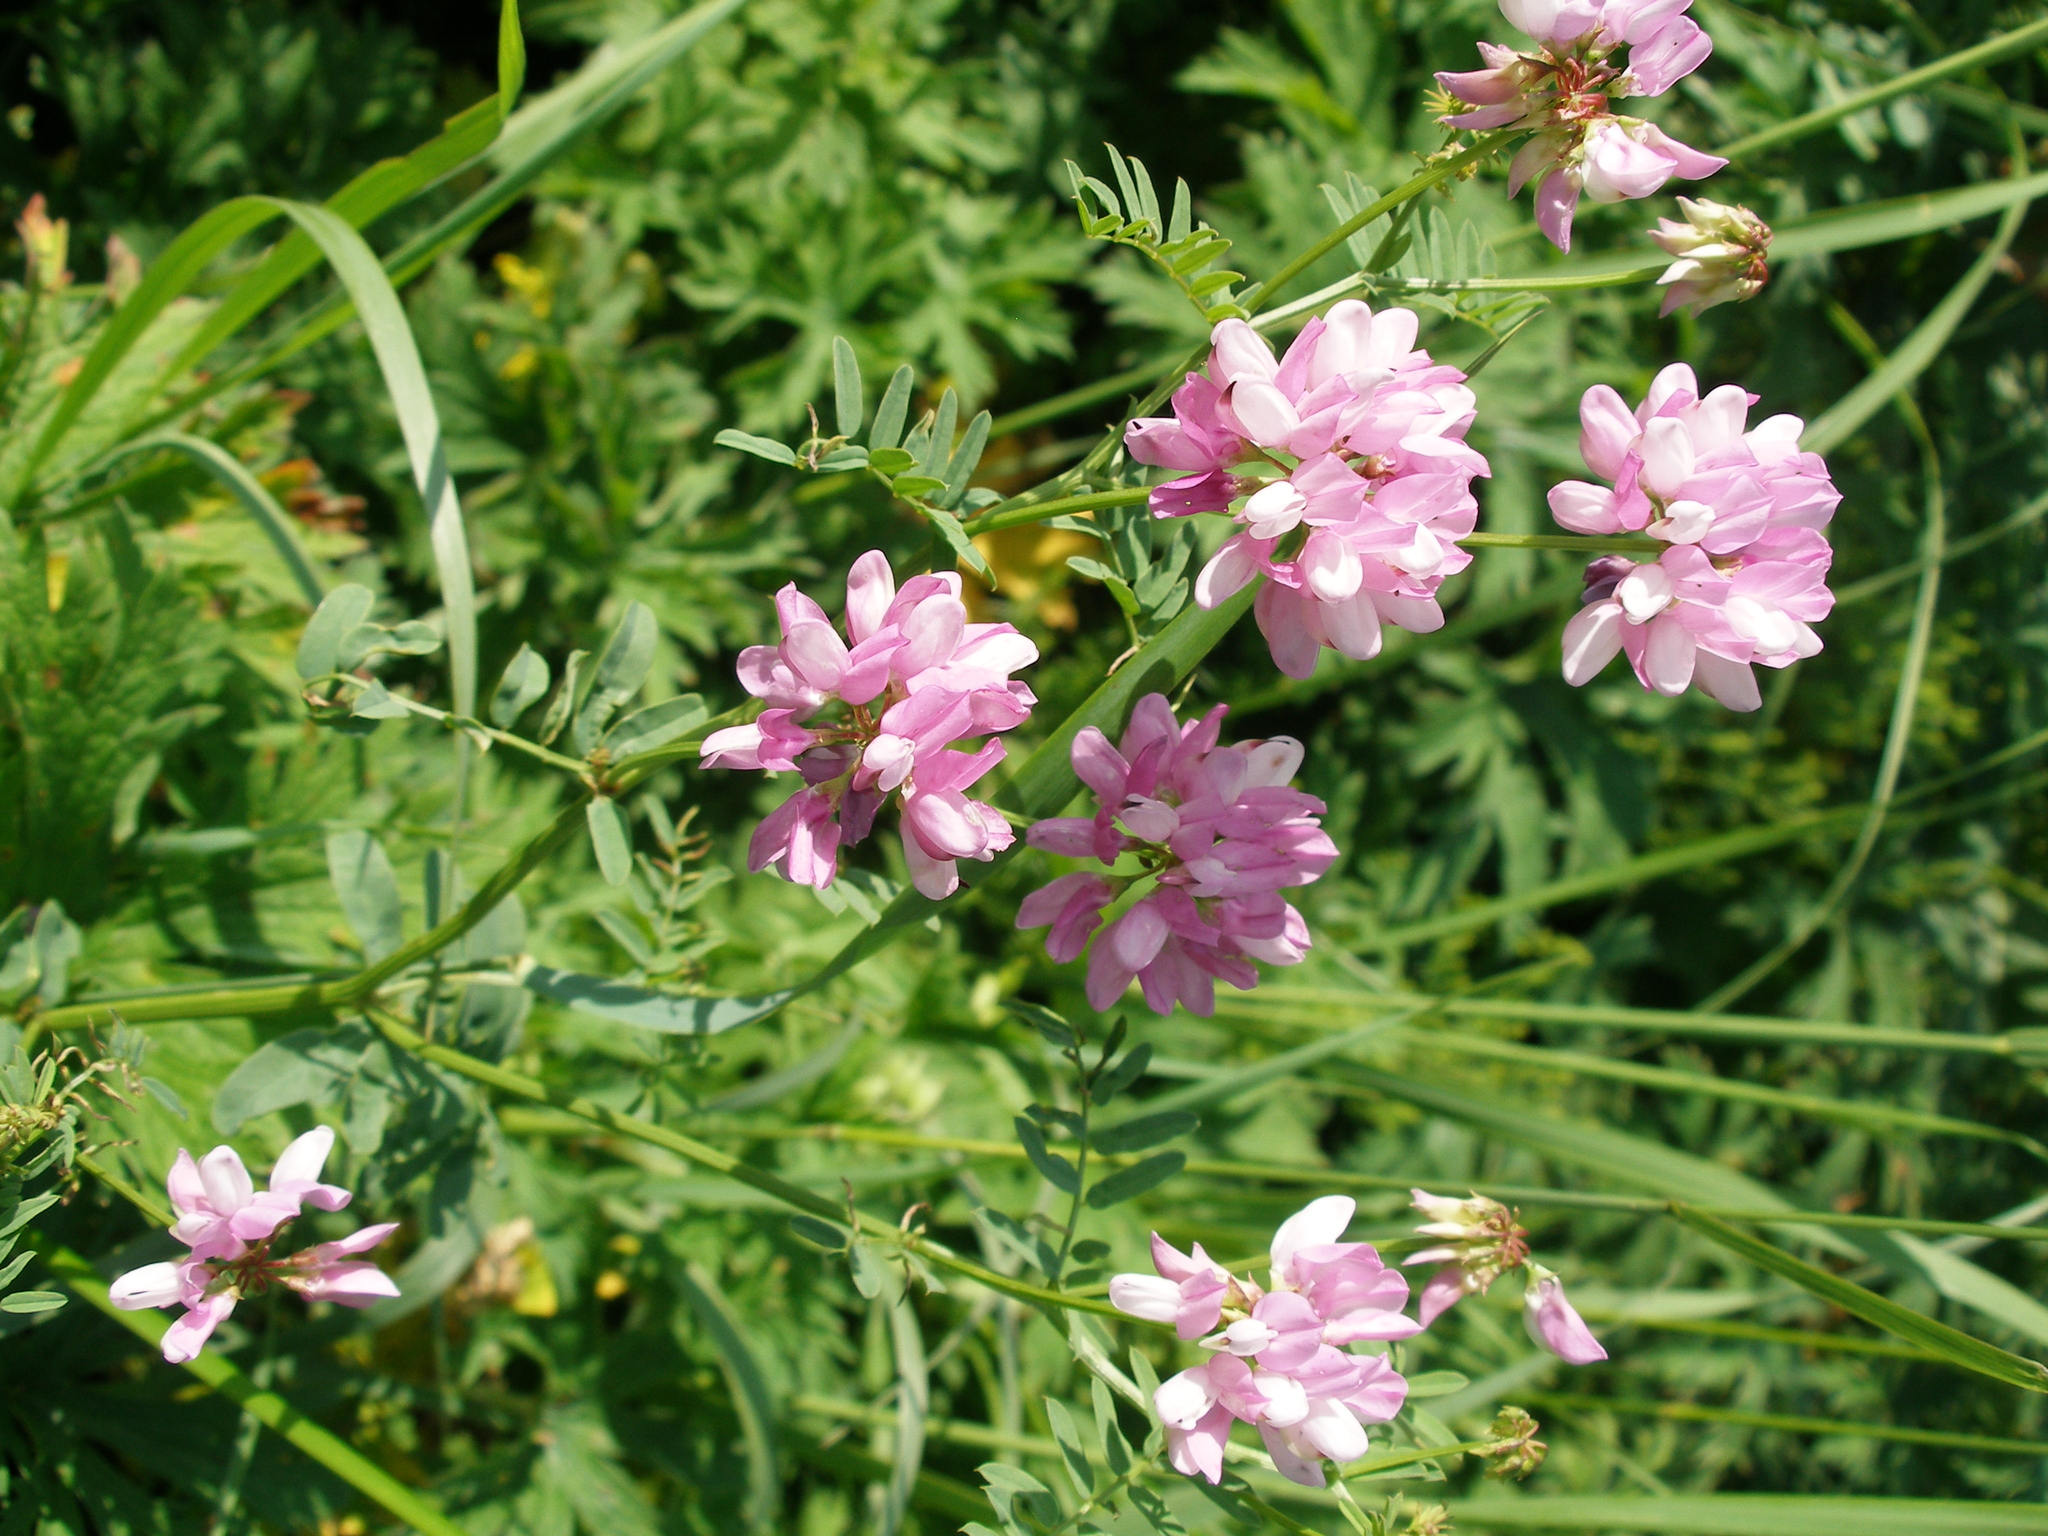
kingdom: Plantae
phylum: Tracheophyta
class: Magnoliopsida
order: Fabales
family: Fabaceae
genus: Coronilla
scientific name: Coronilla varia
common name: Crownvetch
